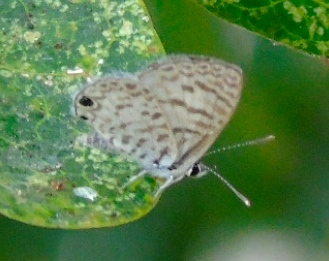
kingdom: Animalia
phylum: Arthropoda
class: Insecta
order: Lepidoptera
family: Lycaenidae
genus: Leptotes
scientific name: Leptotes cassius
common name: Cassius blue
